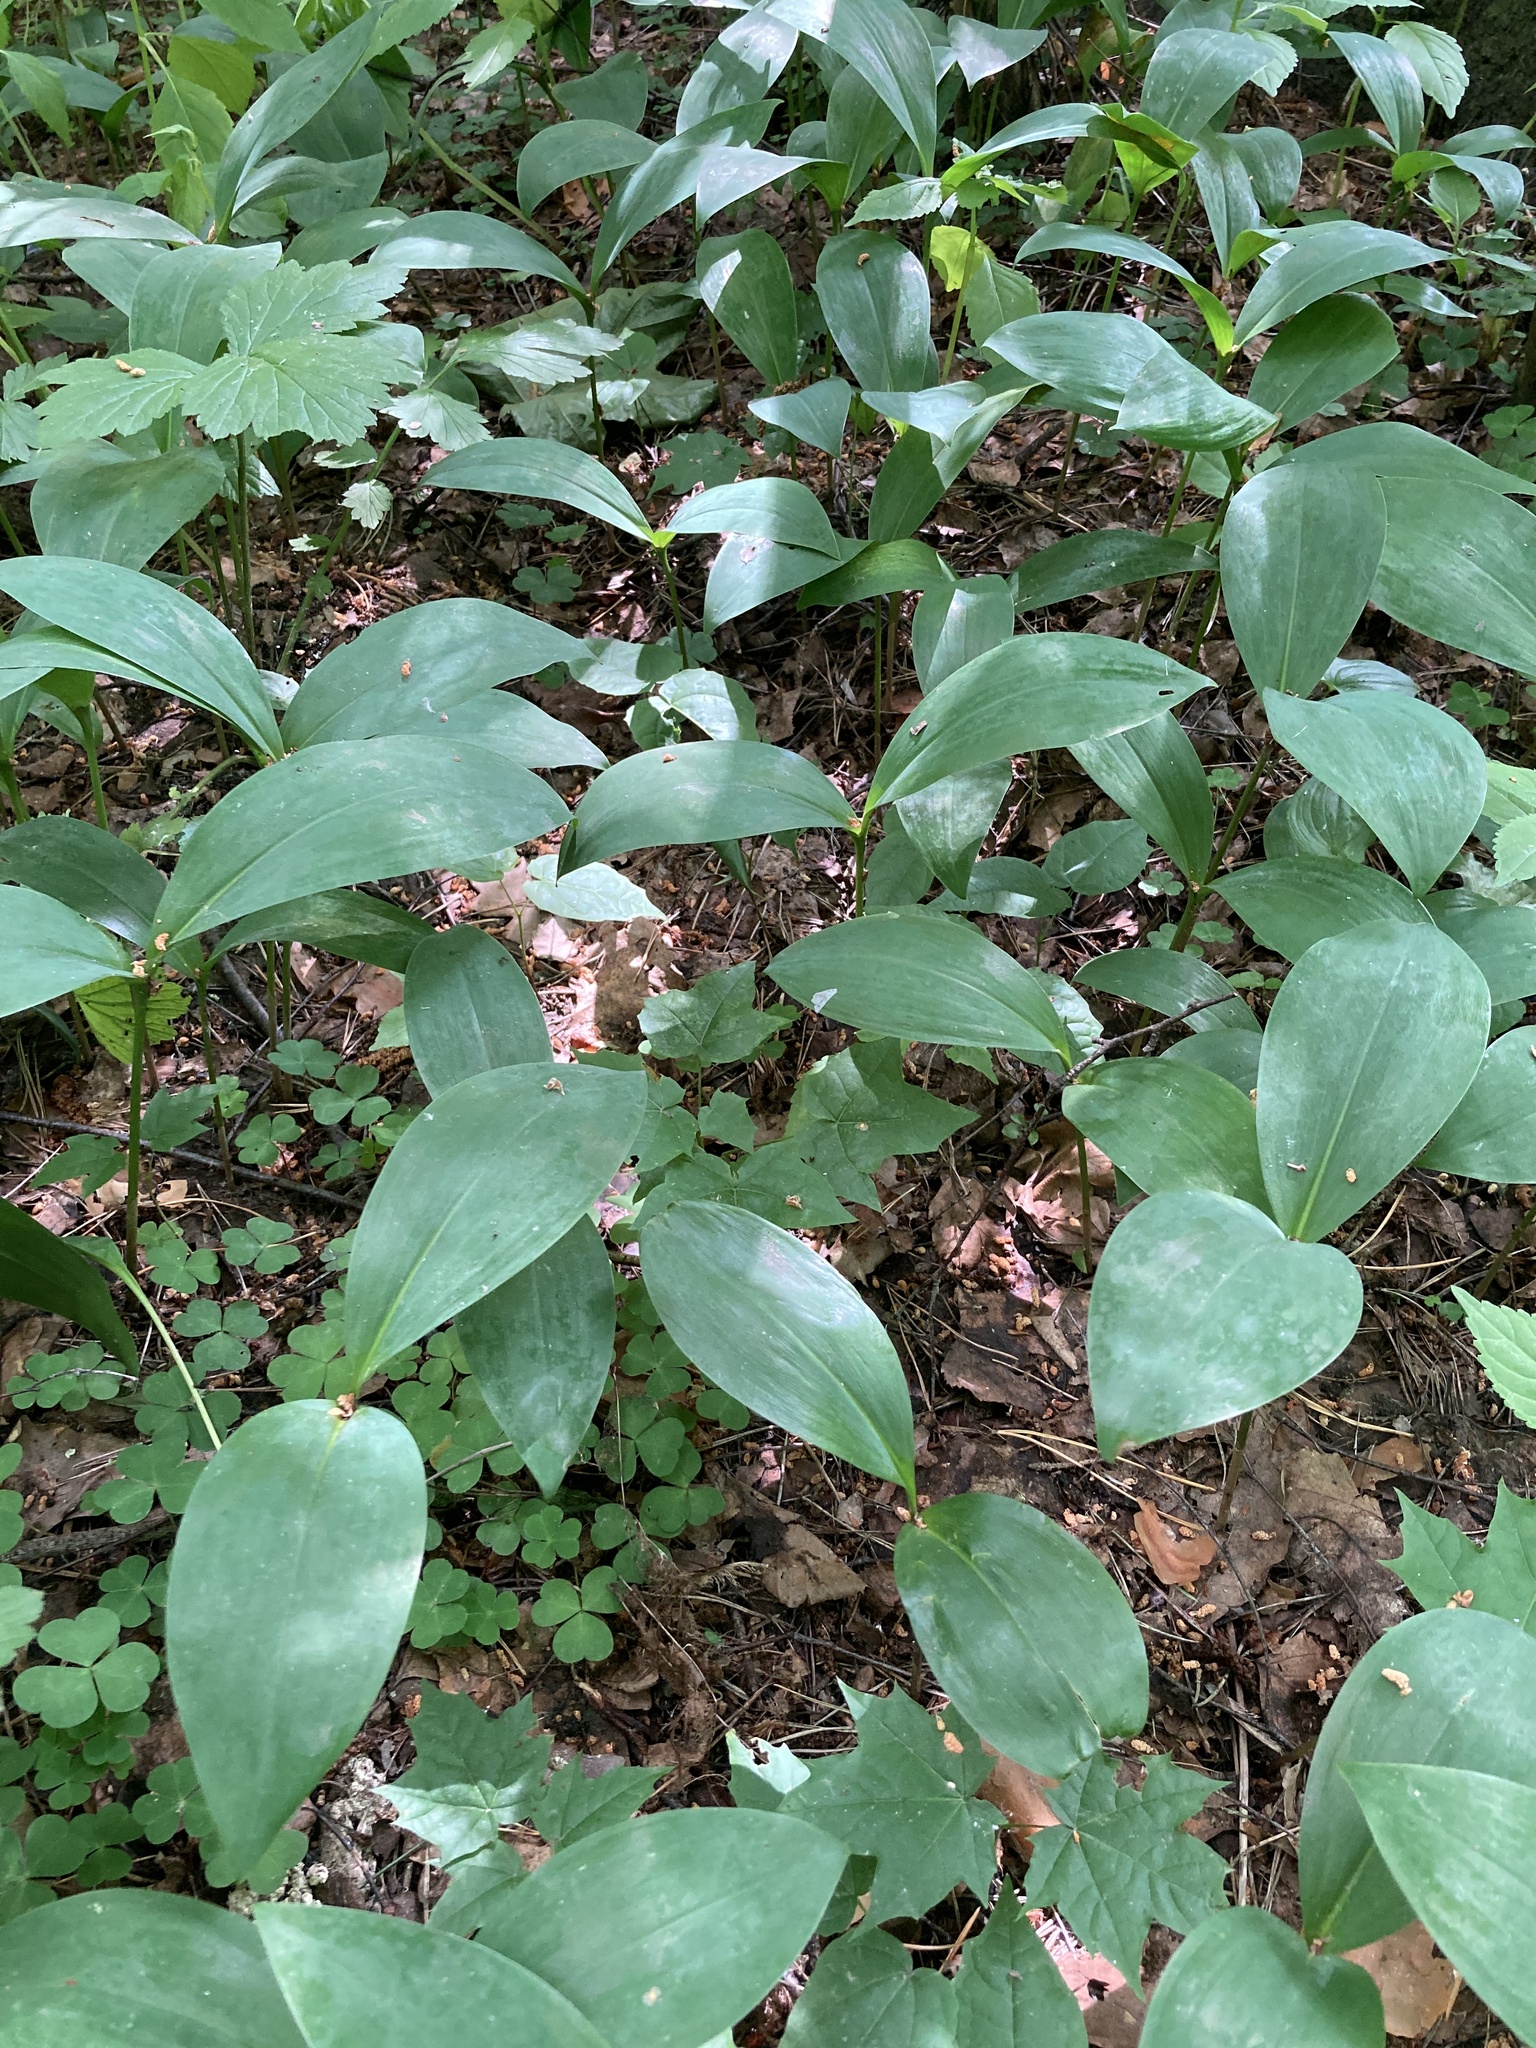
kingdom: Plantae
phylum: Tracheophyta
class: Liliopsida
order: Asparagales
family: Asparagaceae
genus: Convallaria
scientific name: Convallaria majalis
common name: Lily-of-the-valley
